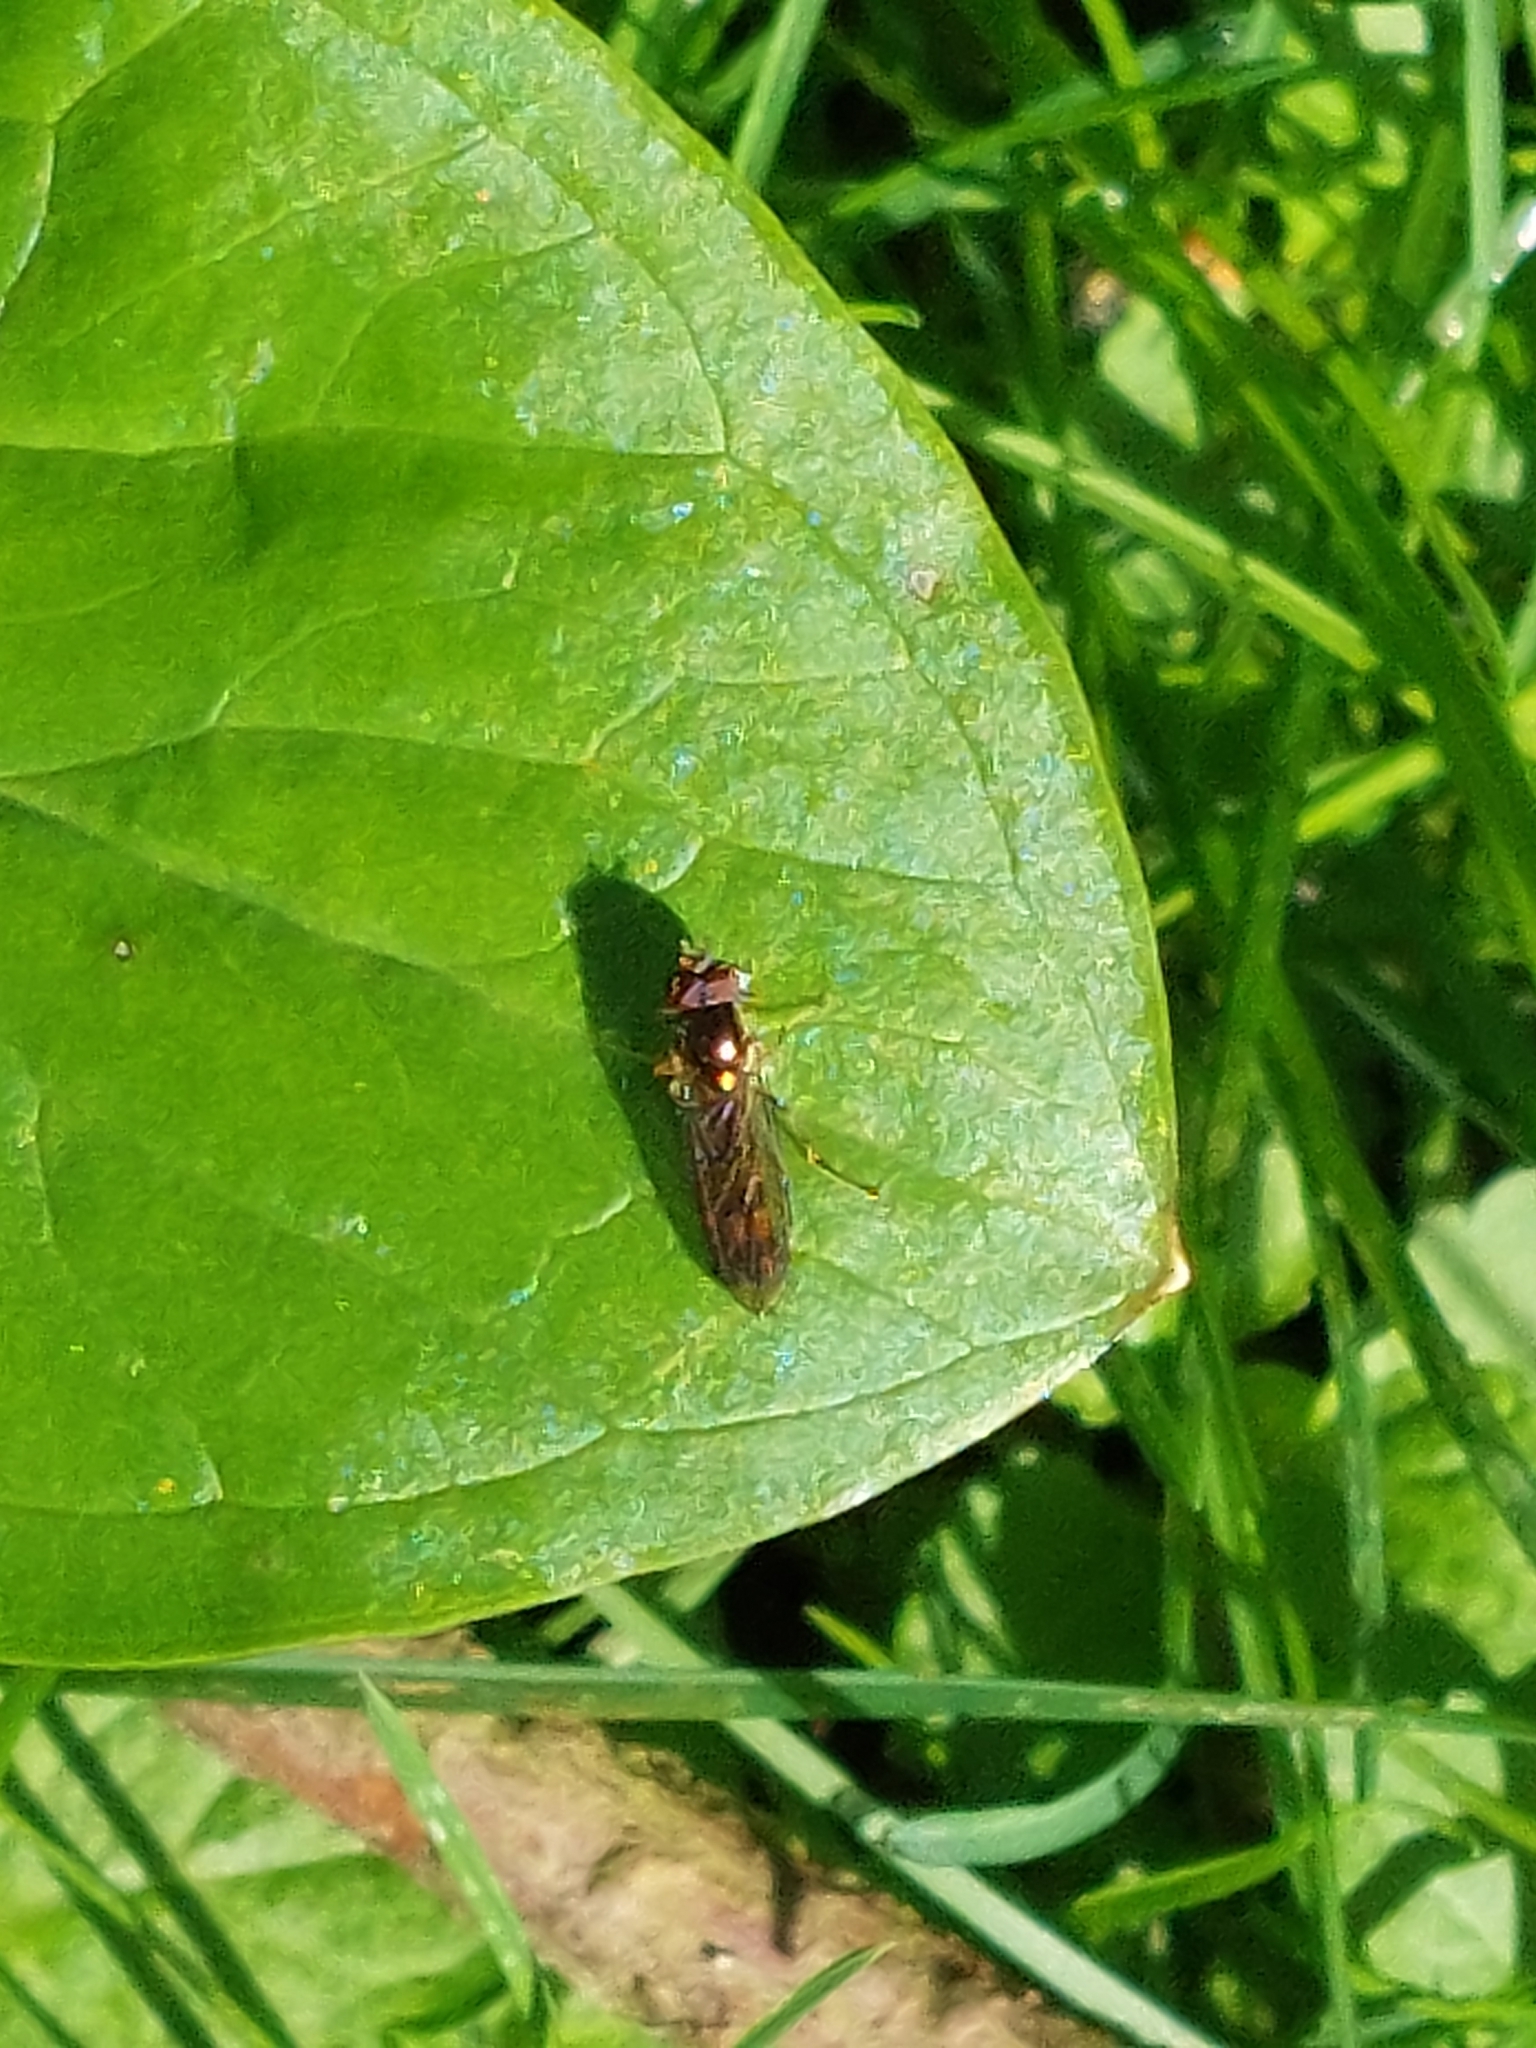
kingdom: Animalia
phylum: Arthropoda
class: Insecta
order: Diptera
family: Syrphidae
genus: Melanostoma
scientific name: Melanostoma
